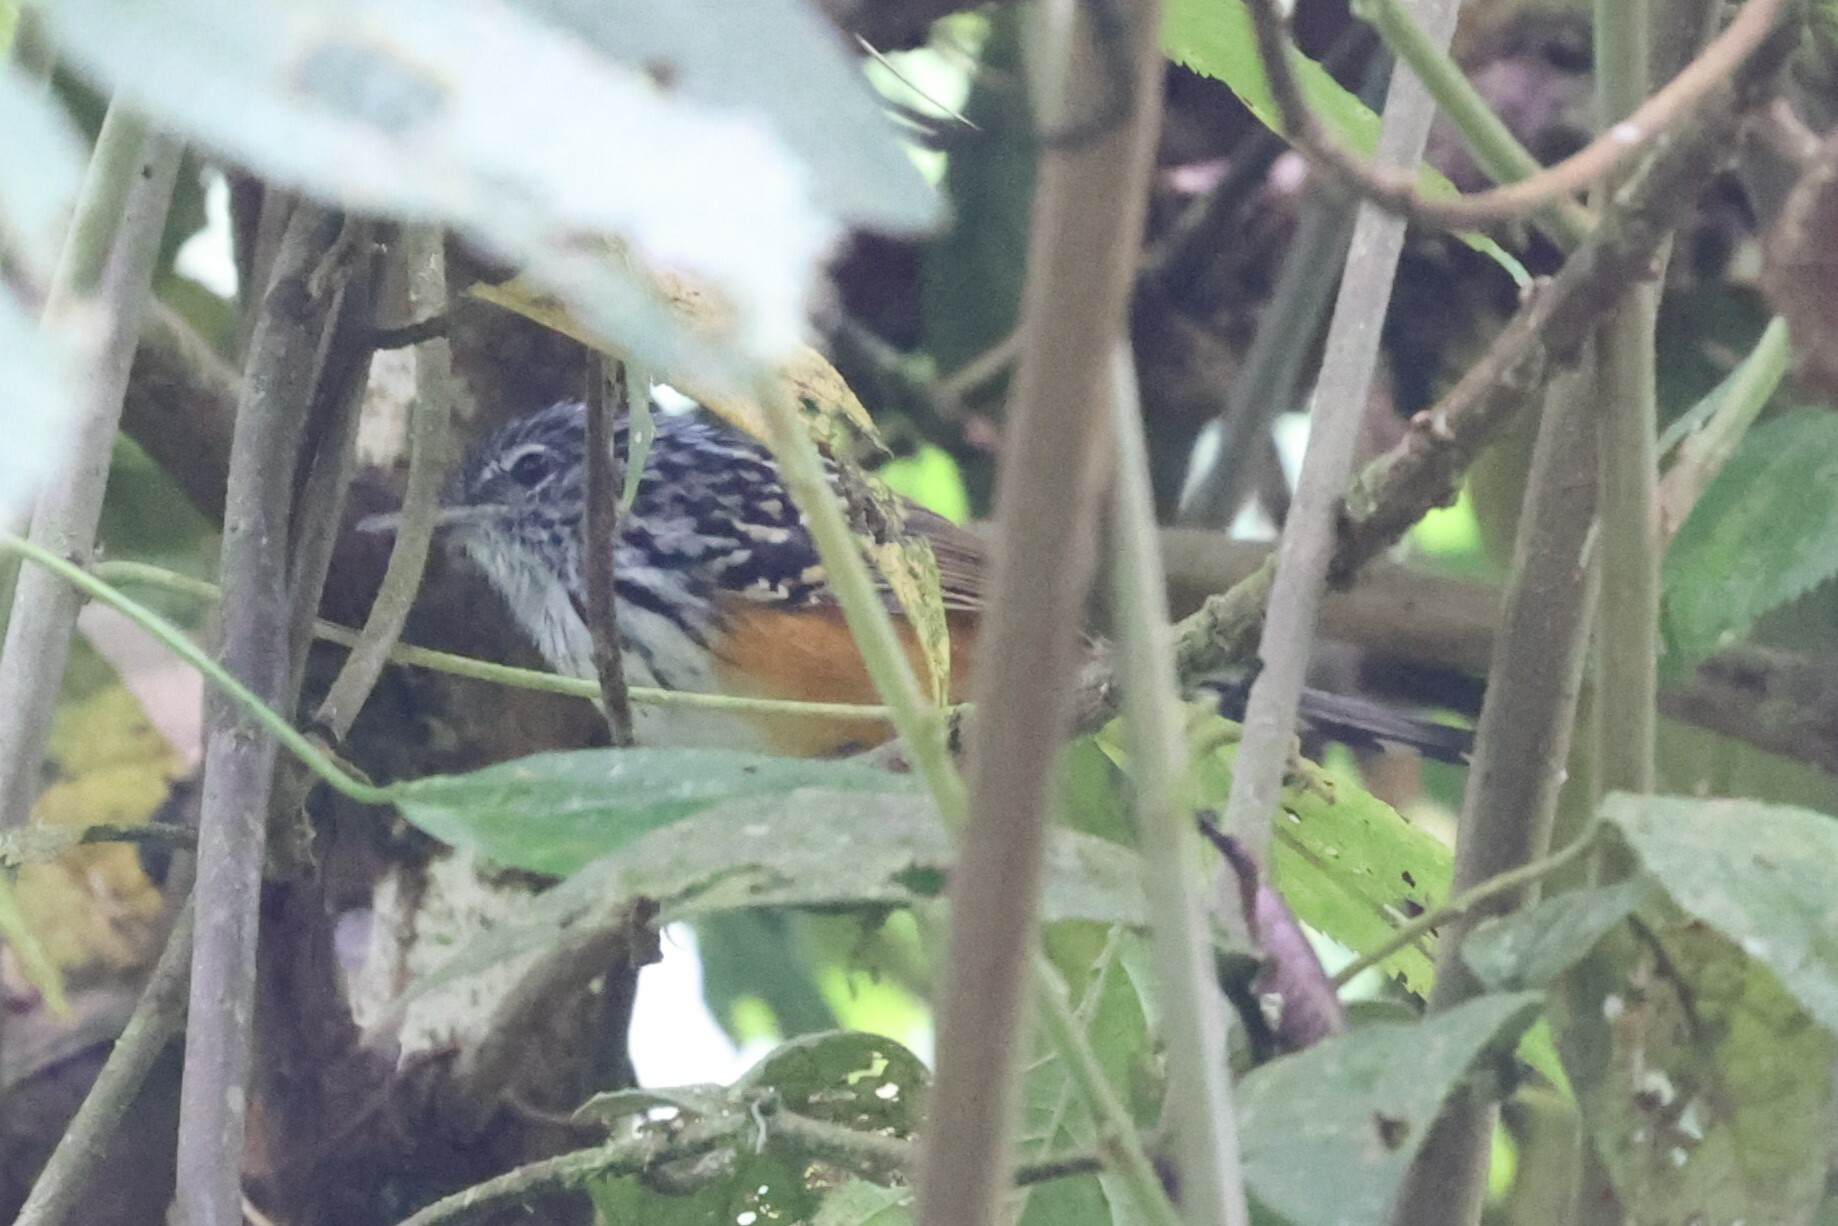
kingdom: Animalia
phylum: Chordata
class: Aves
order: Passeriformes
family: Thamnophilidae
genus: Drymophila
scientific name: Drymophila striaticeps
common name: Streak-headed antbird
